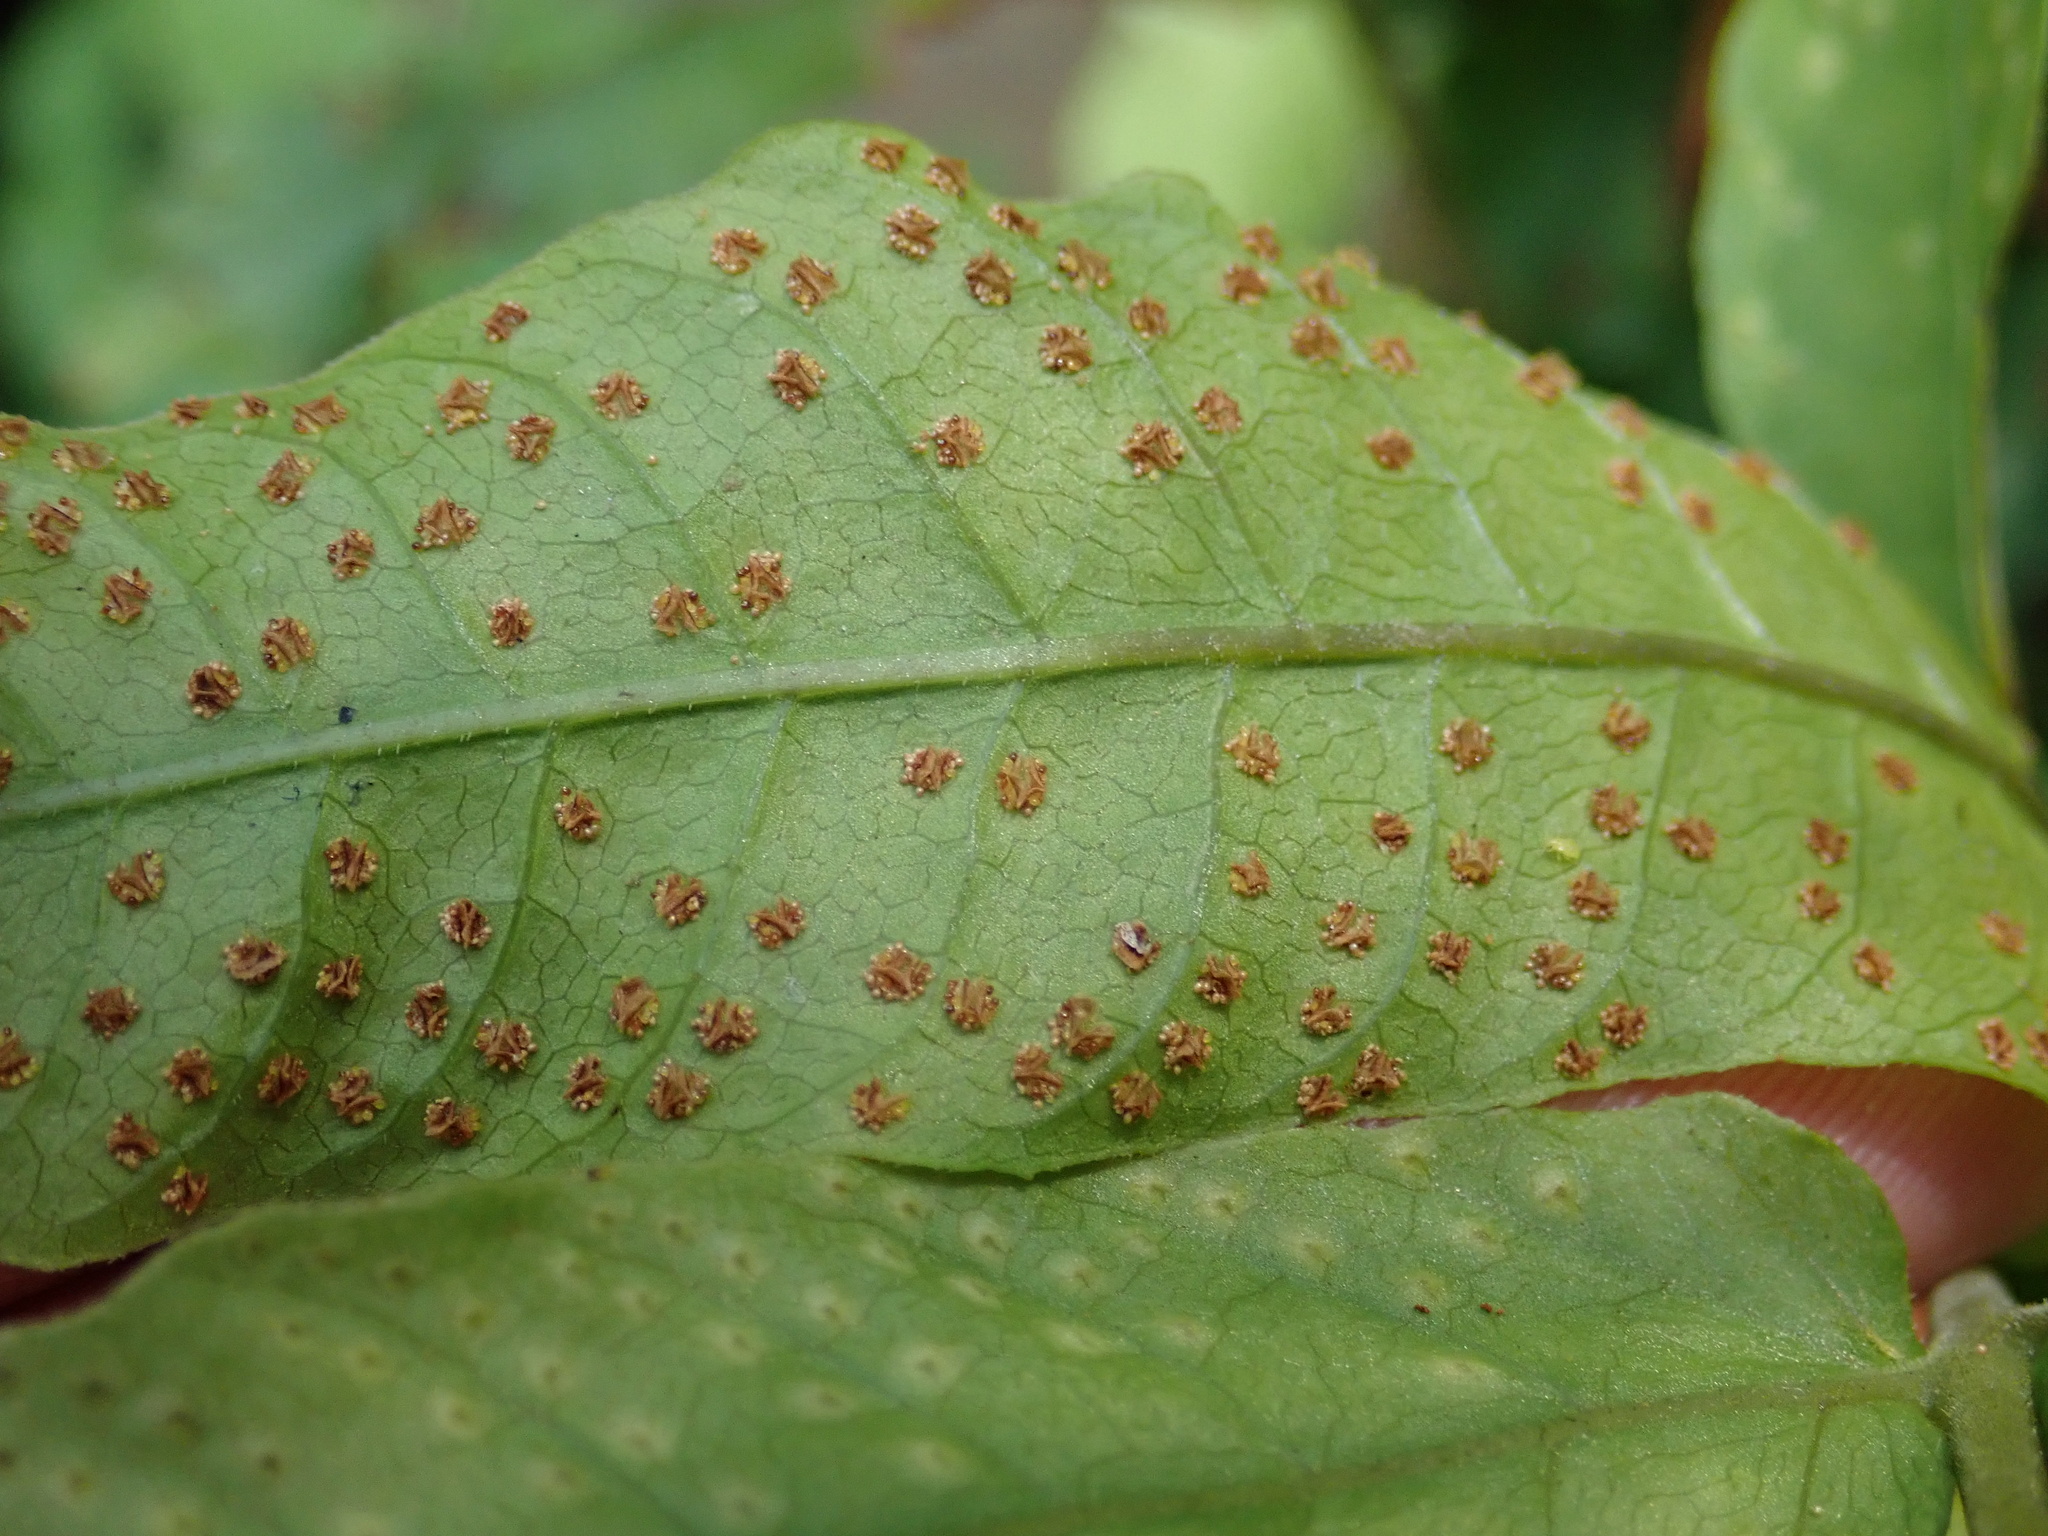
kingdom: Plantae
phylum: Tracheophyta
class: Polypodiopsida
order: Polypodiales
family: Tectariaceae
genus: Tectaria
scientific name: Tectaria incisa
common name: Incised halberd fern
